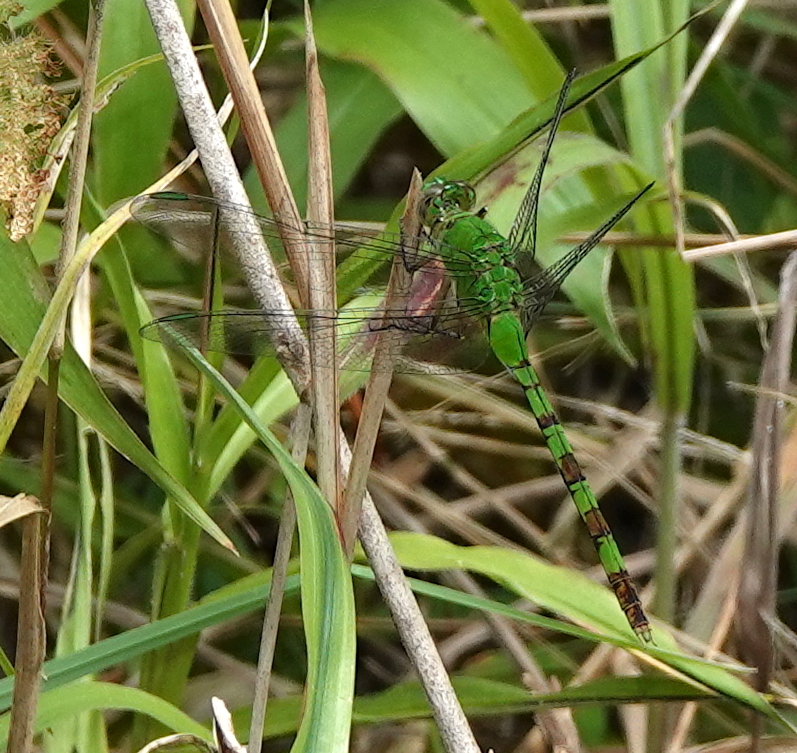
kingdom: Animalia
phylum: Arthropoda
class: Insecta
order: Odonata
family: Libellulidae
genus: Erythemis
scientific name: Erythemis vesiculosa
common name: Great pondhawk
